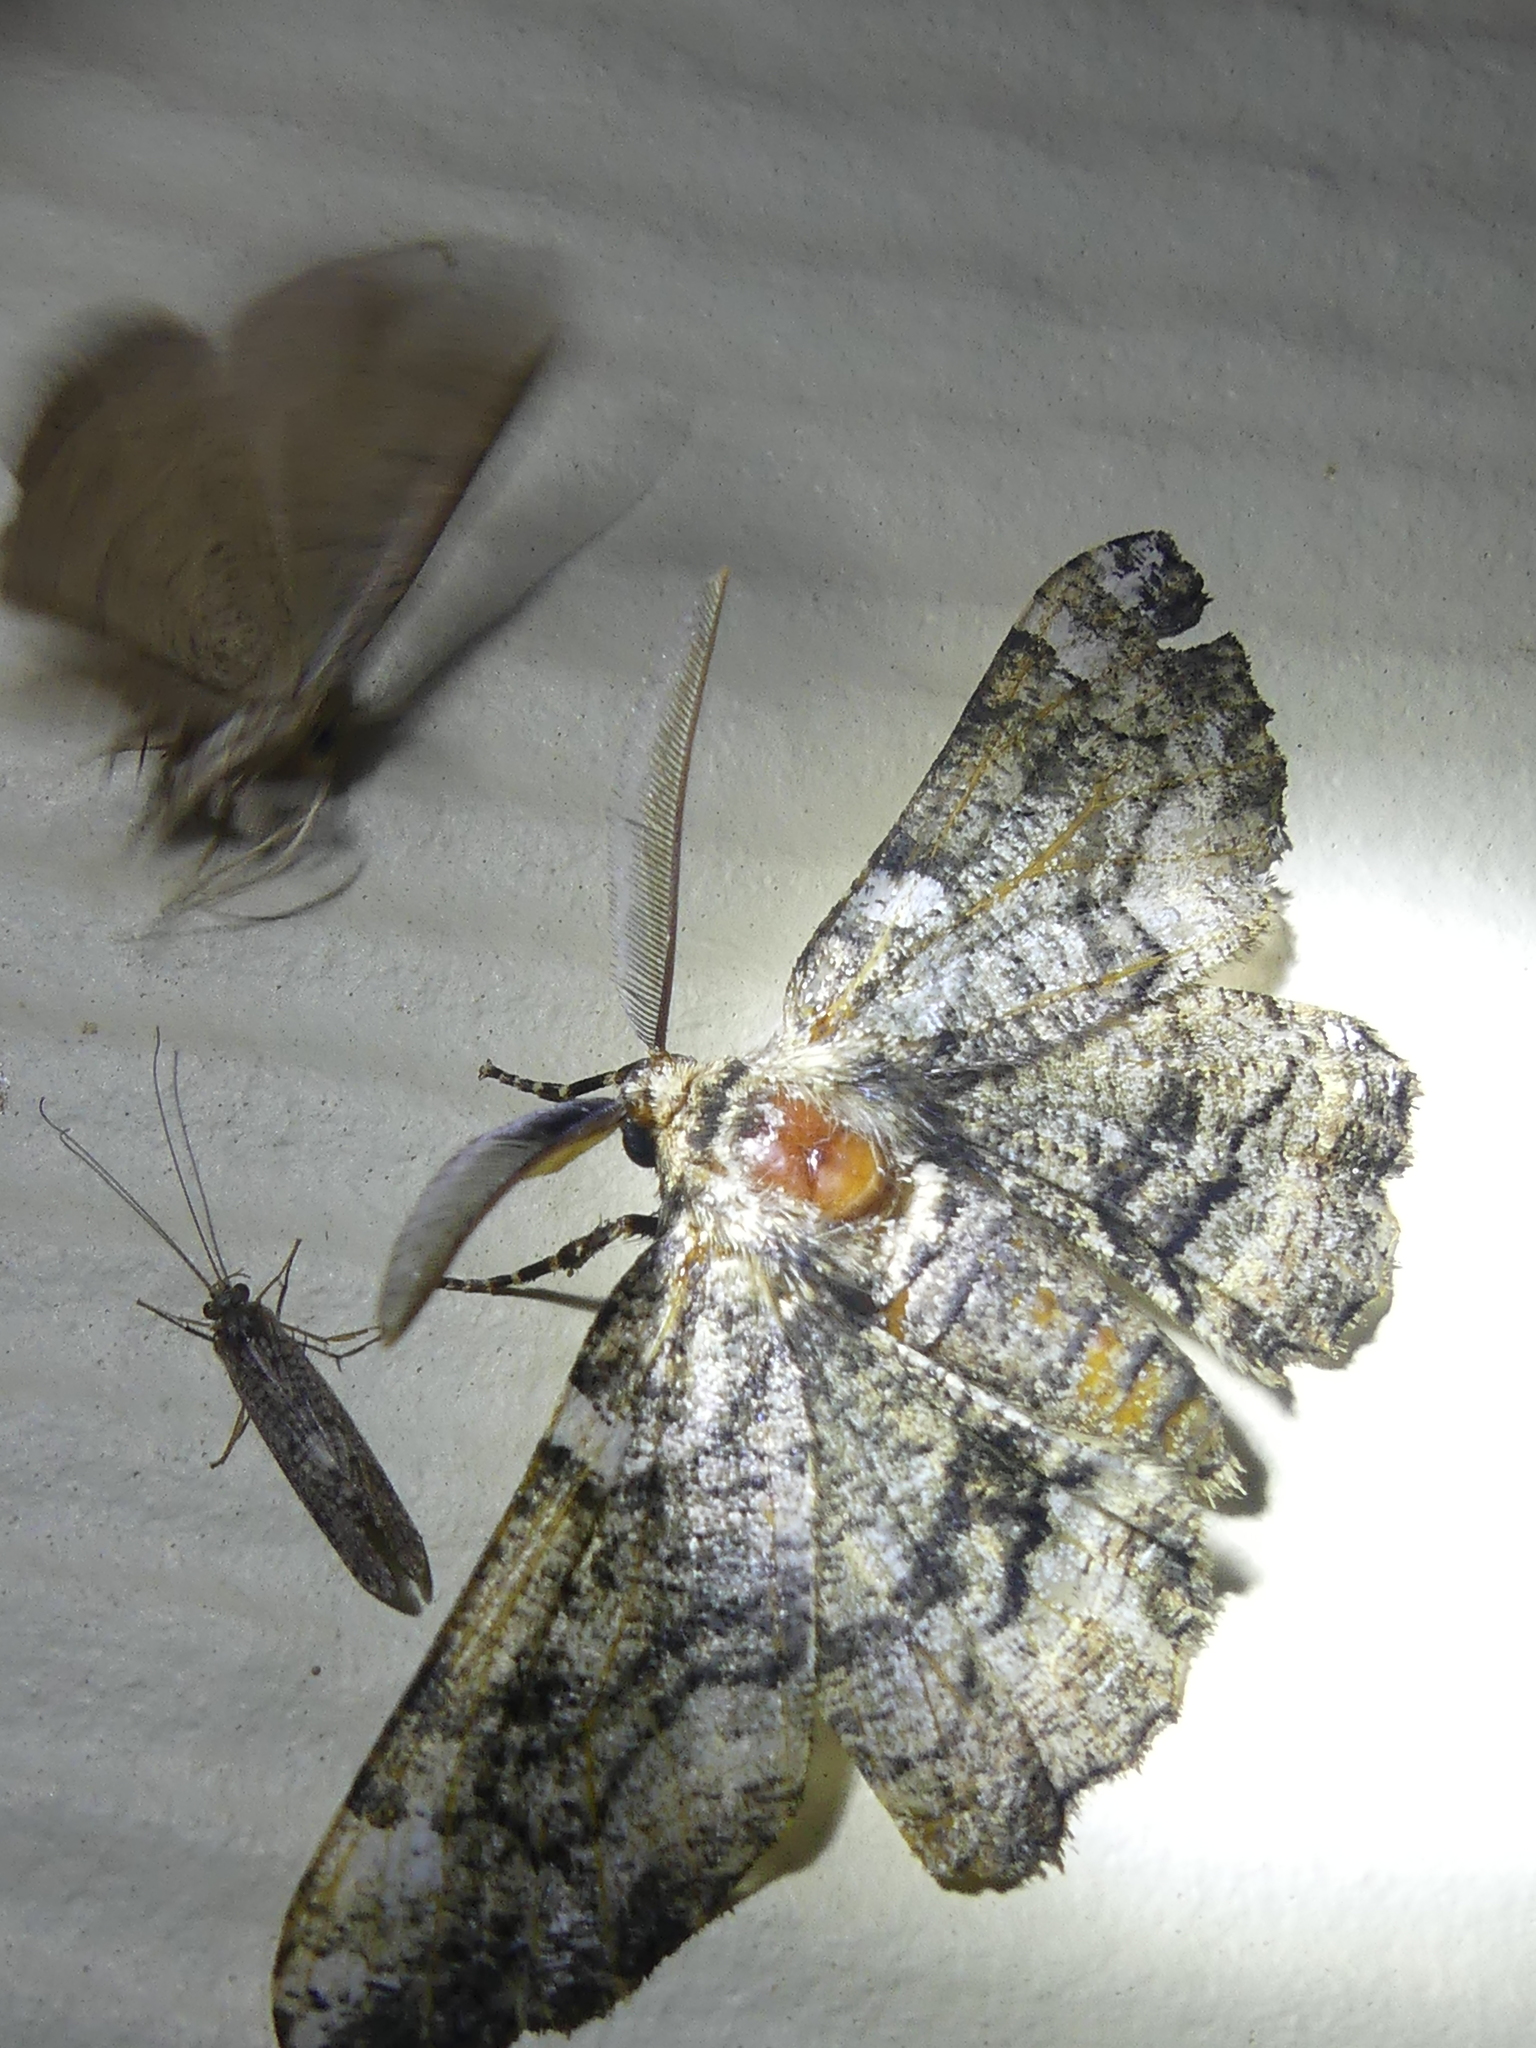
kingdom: Animalia
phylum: Arthropoda
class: Insecta
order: Lepidoptera
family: Geometridae
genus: Phaeoura
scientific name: Phaeoura quernaria
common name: Oak beauty
